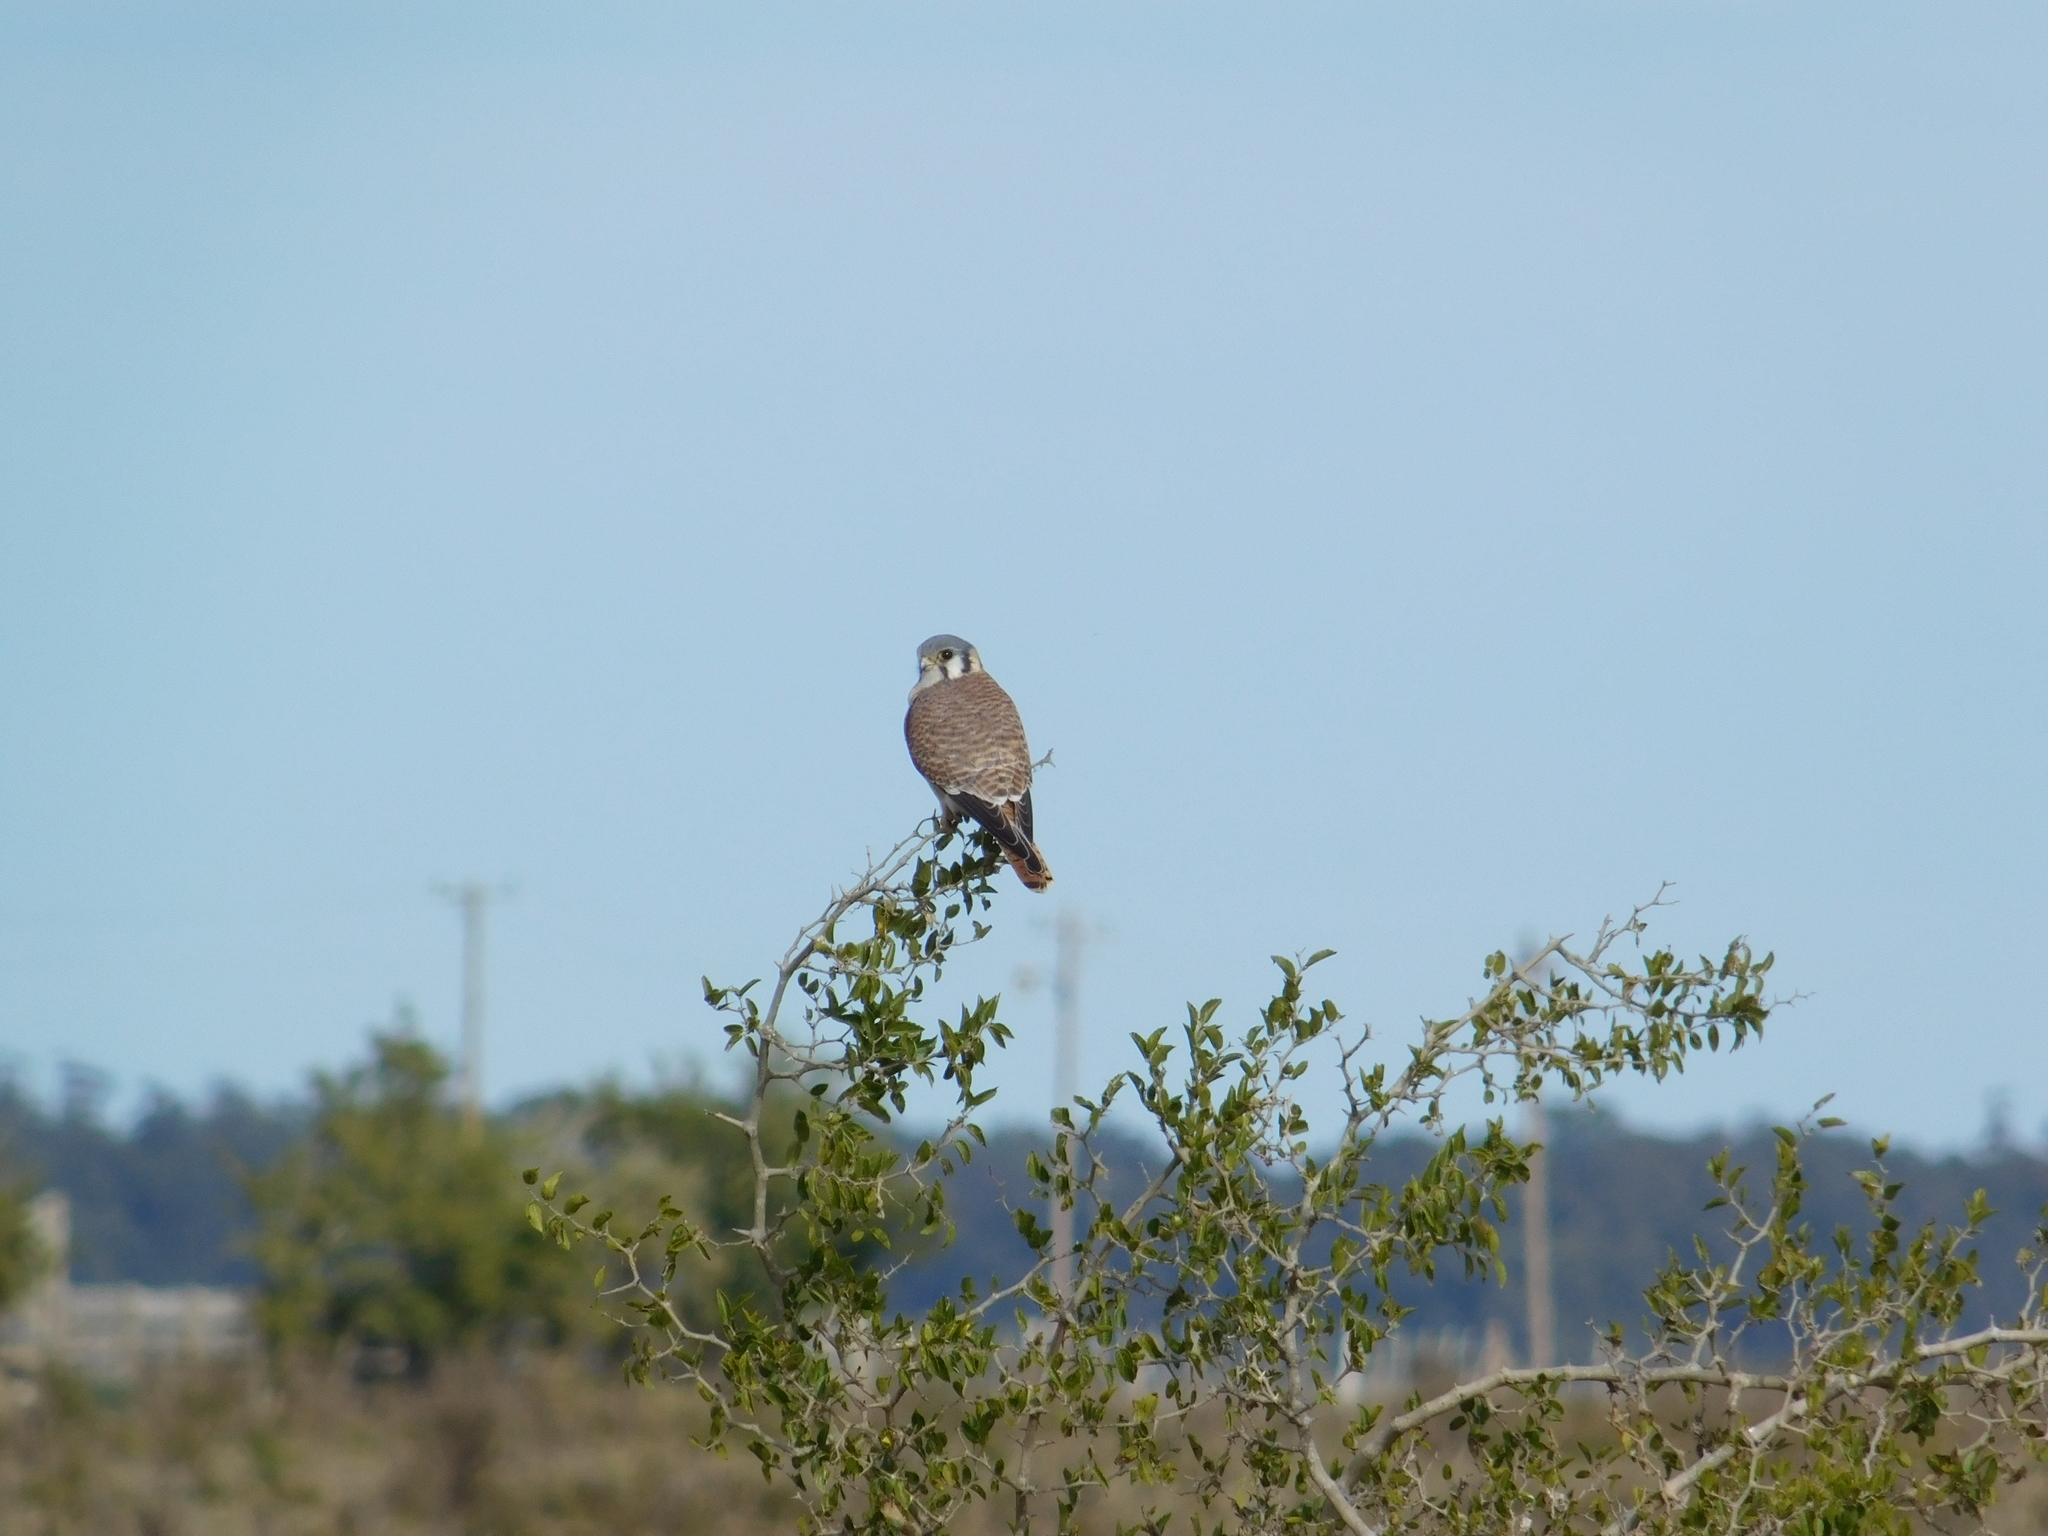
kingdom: Animalia
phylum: Chordata
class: Aves
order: Falconiformes
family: Falconidae
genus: Falco
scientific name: Falco sparverius
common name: American kestrel
